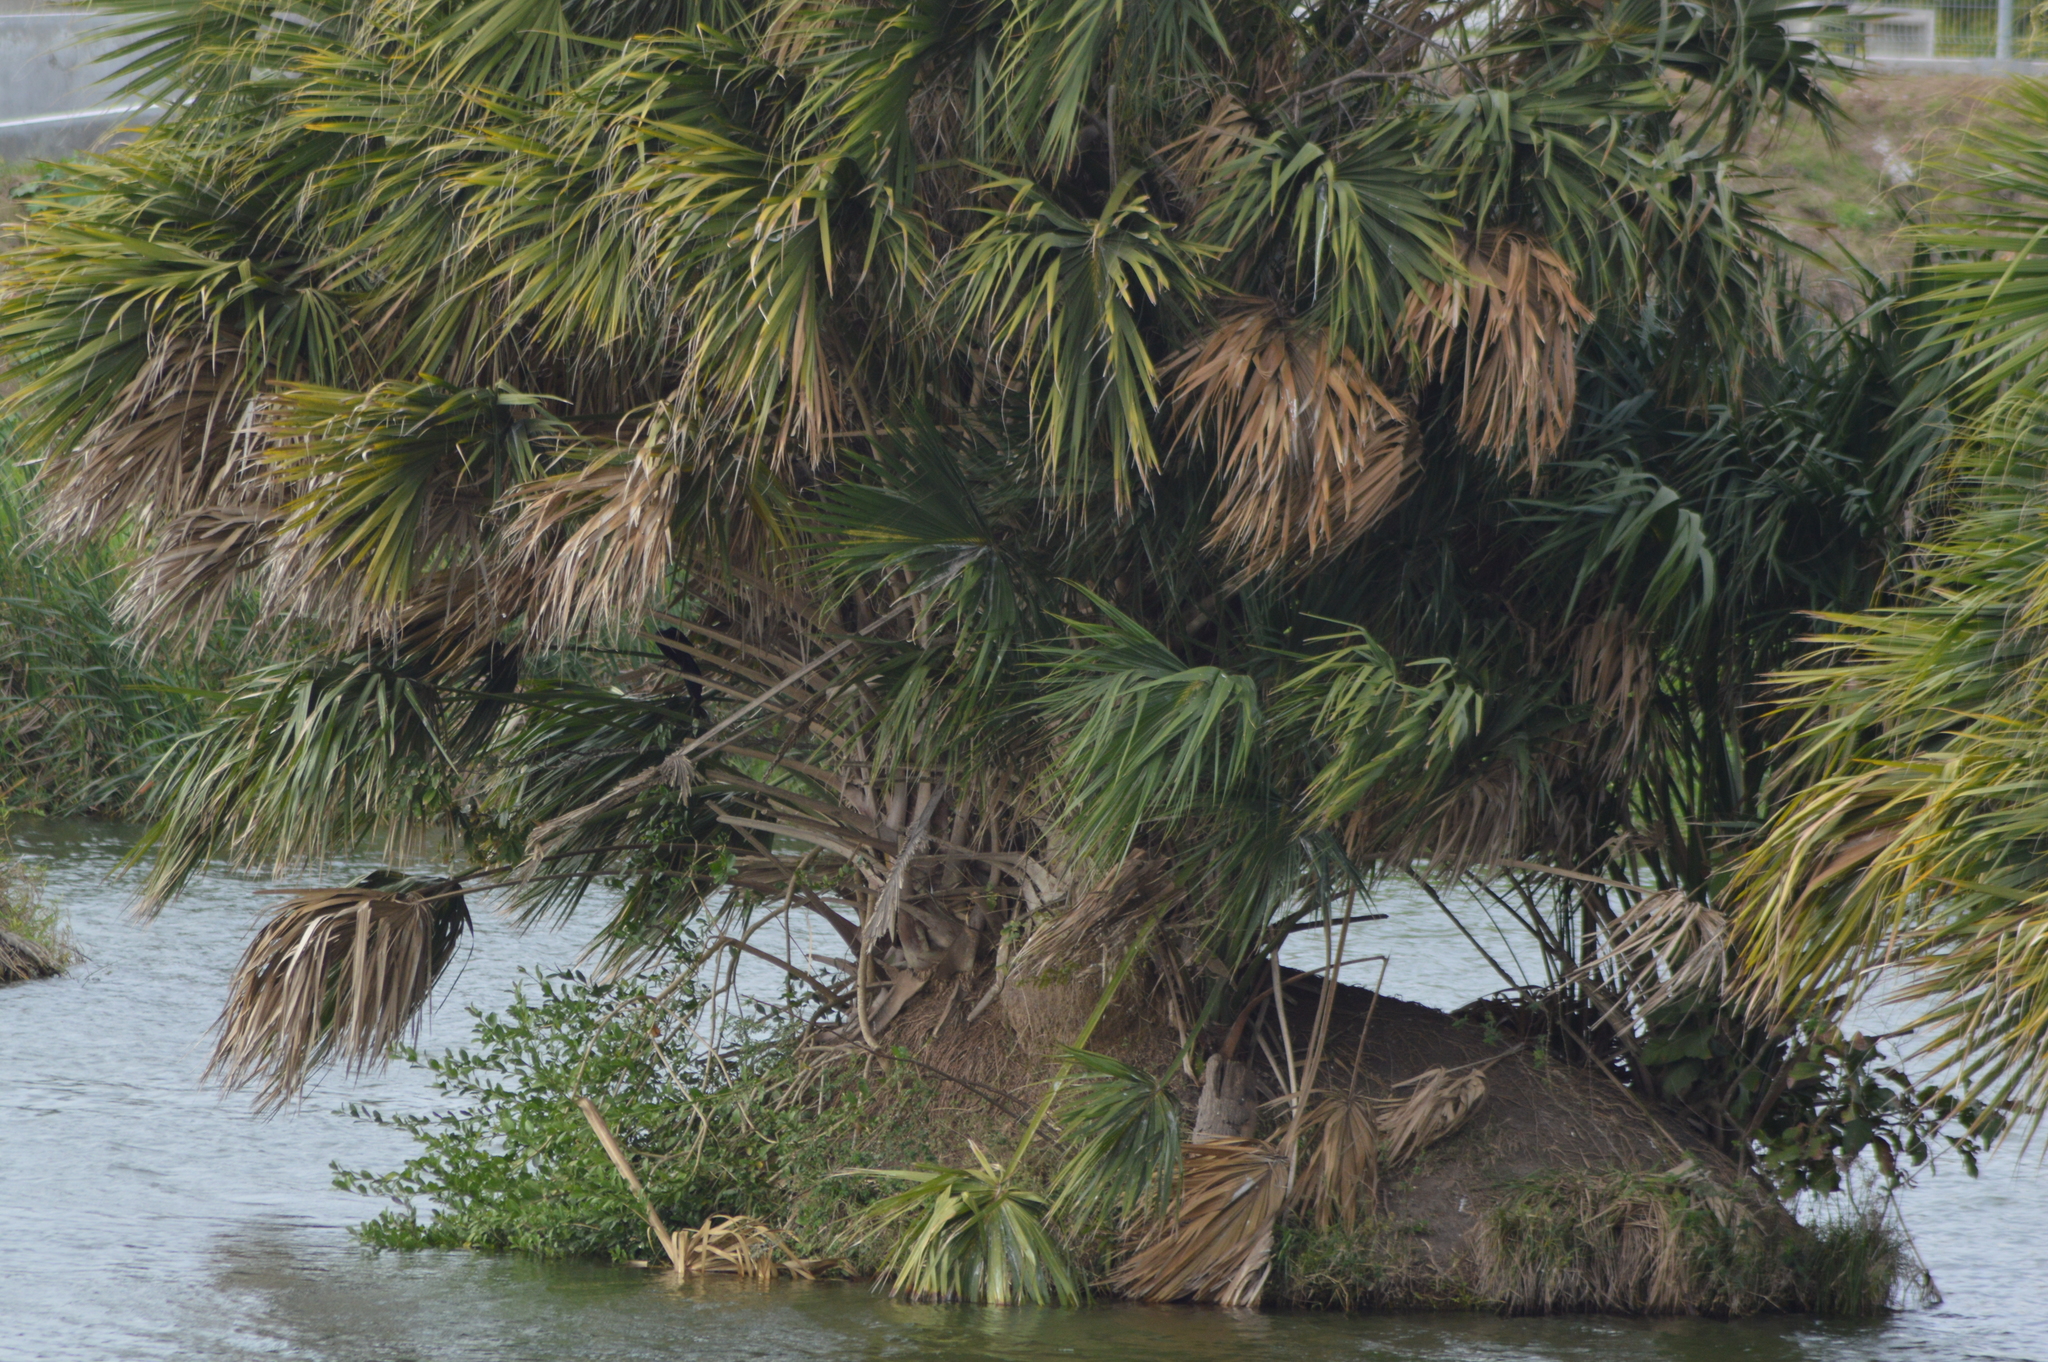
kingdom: Plantae
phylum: Tracheophyta
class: Liliopsida
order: Arecales
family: Arecaceae
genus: Sabal
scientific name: Sabal mexicana
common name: Texas palmetto
